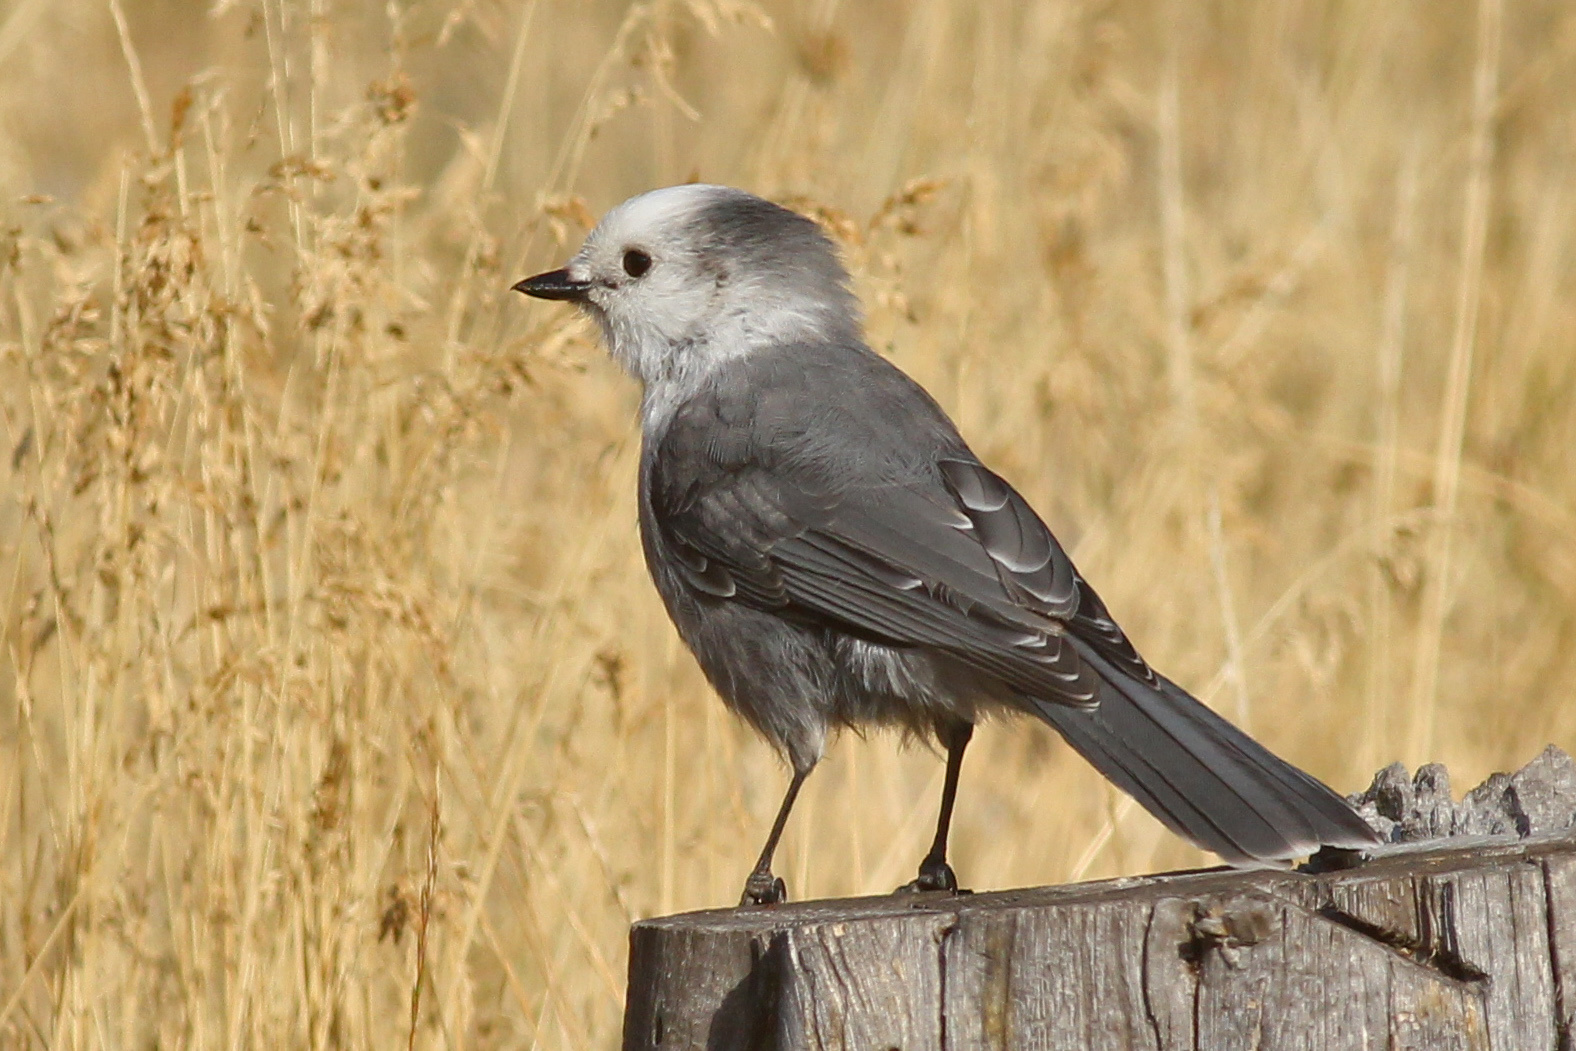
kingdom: Animalia
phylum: Chordata
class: Aves
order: Passeriformes
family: Corvidae
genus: Perisoreus
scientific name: Perisoreus canadensis
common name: Gray jay
